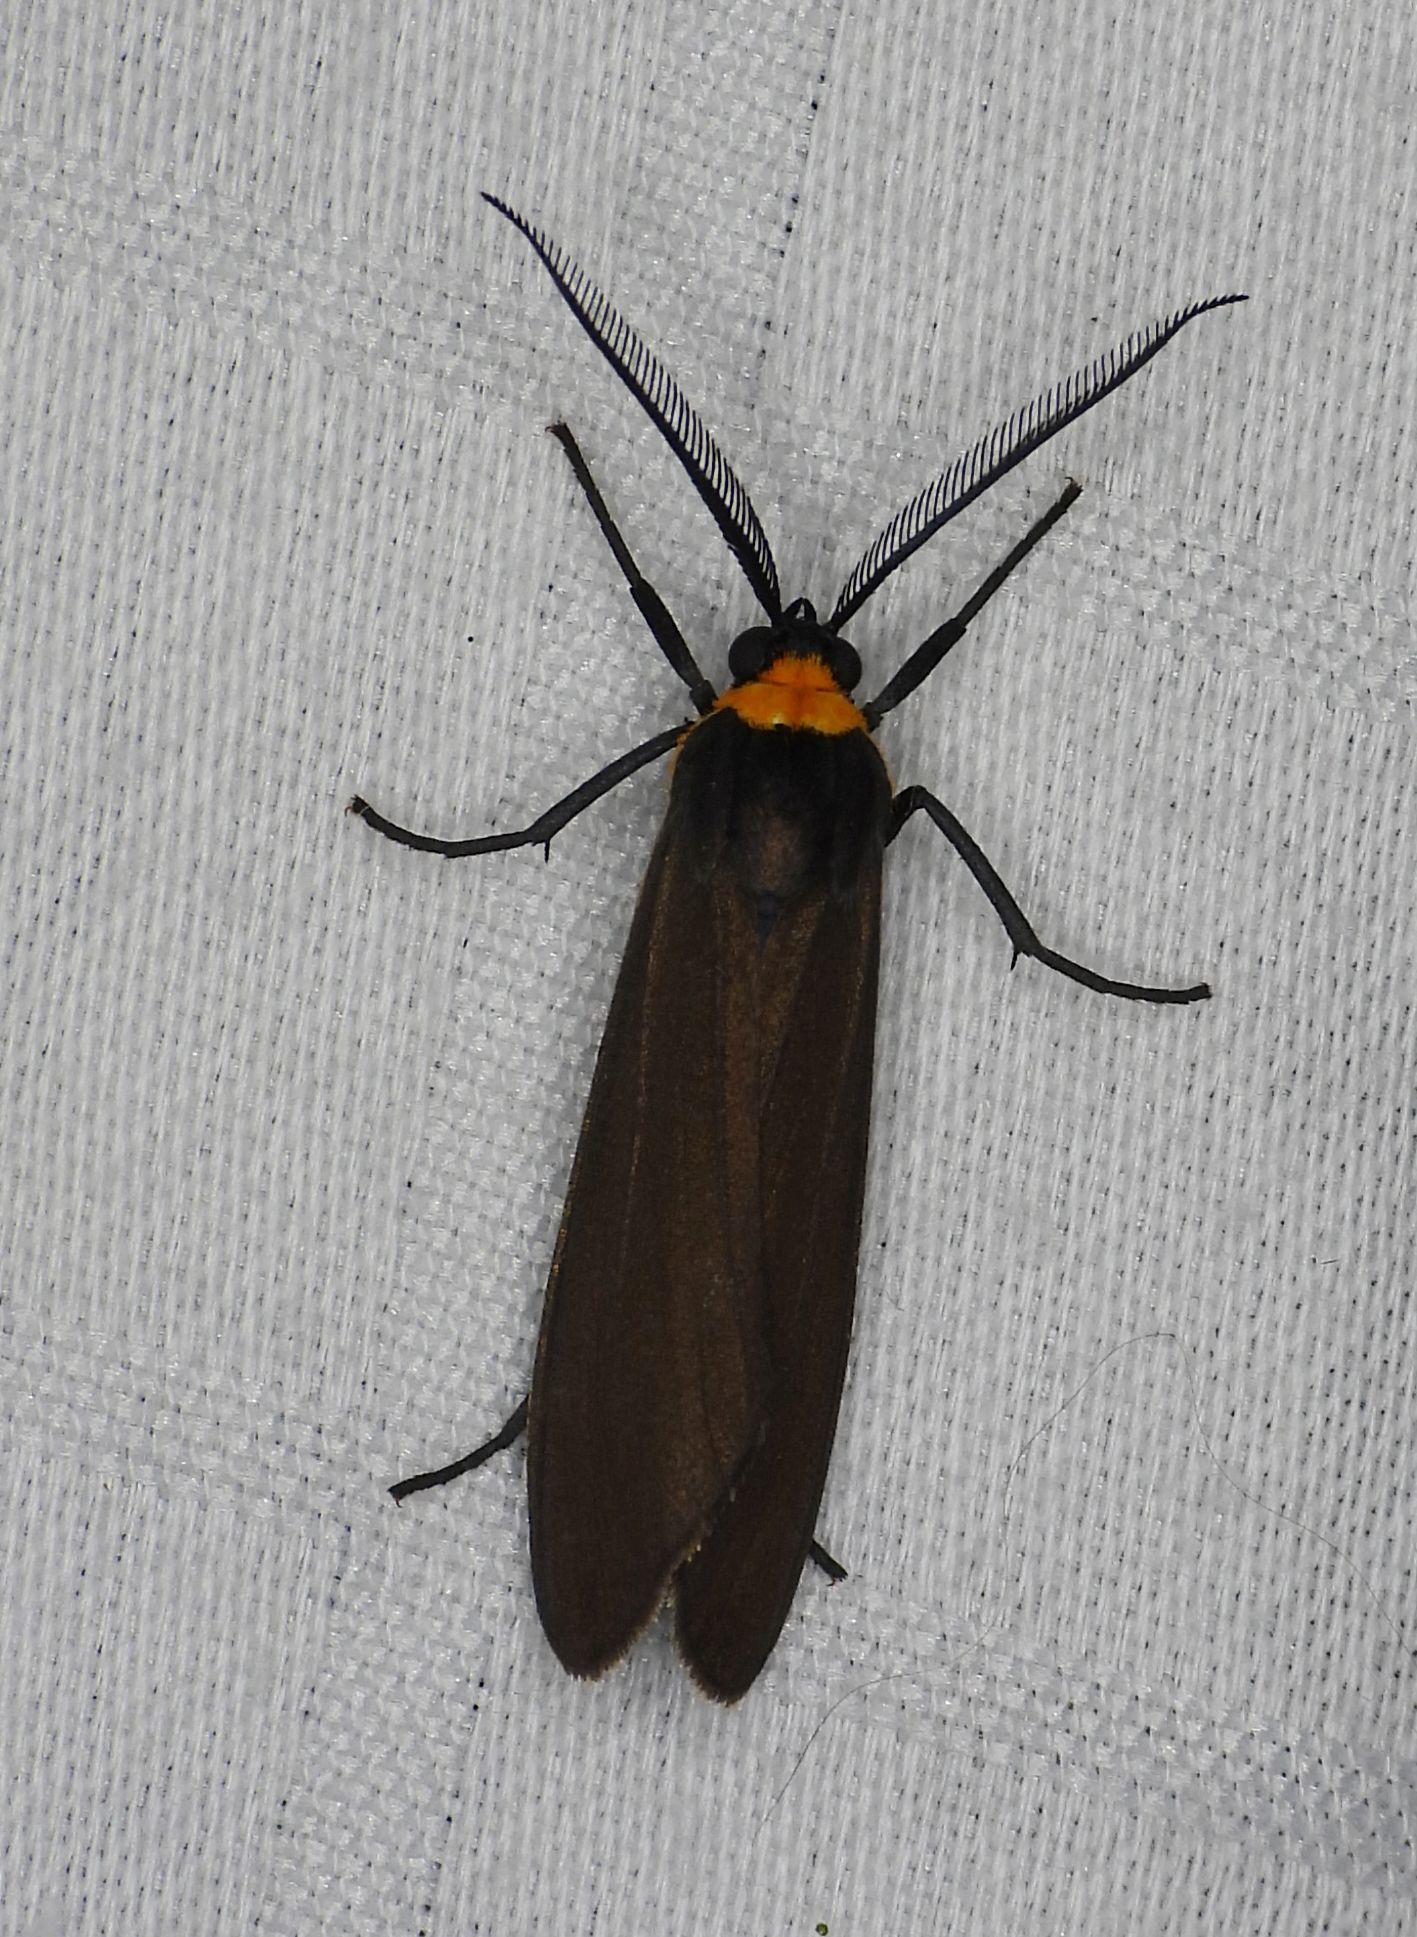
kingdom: Animalia
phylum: Arthropoda
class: Insecta
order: Lepidoptera
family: Erebidae
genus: Cisseps
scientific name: Cisseps fulvicollis
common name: Yellow-collared scape moth
